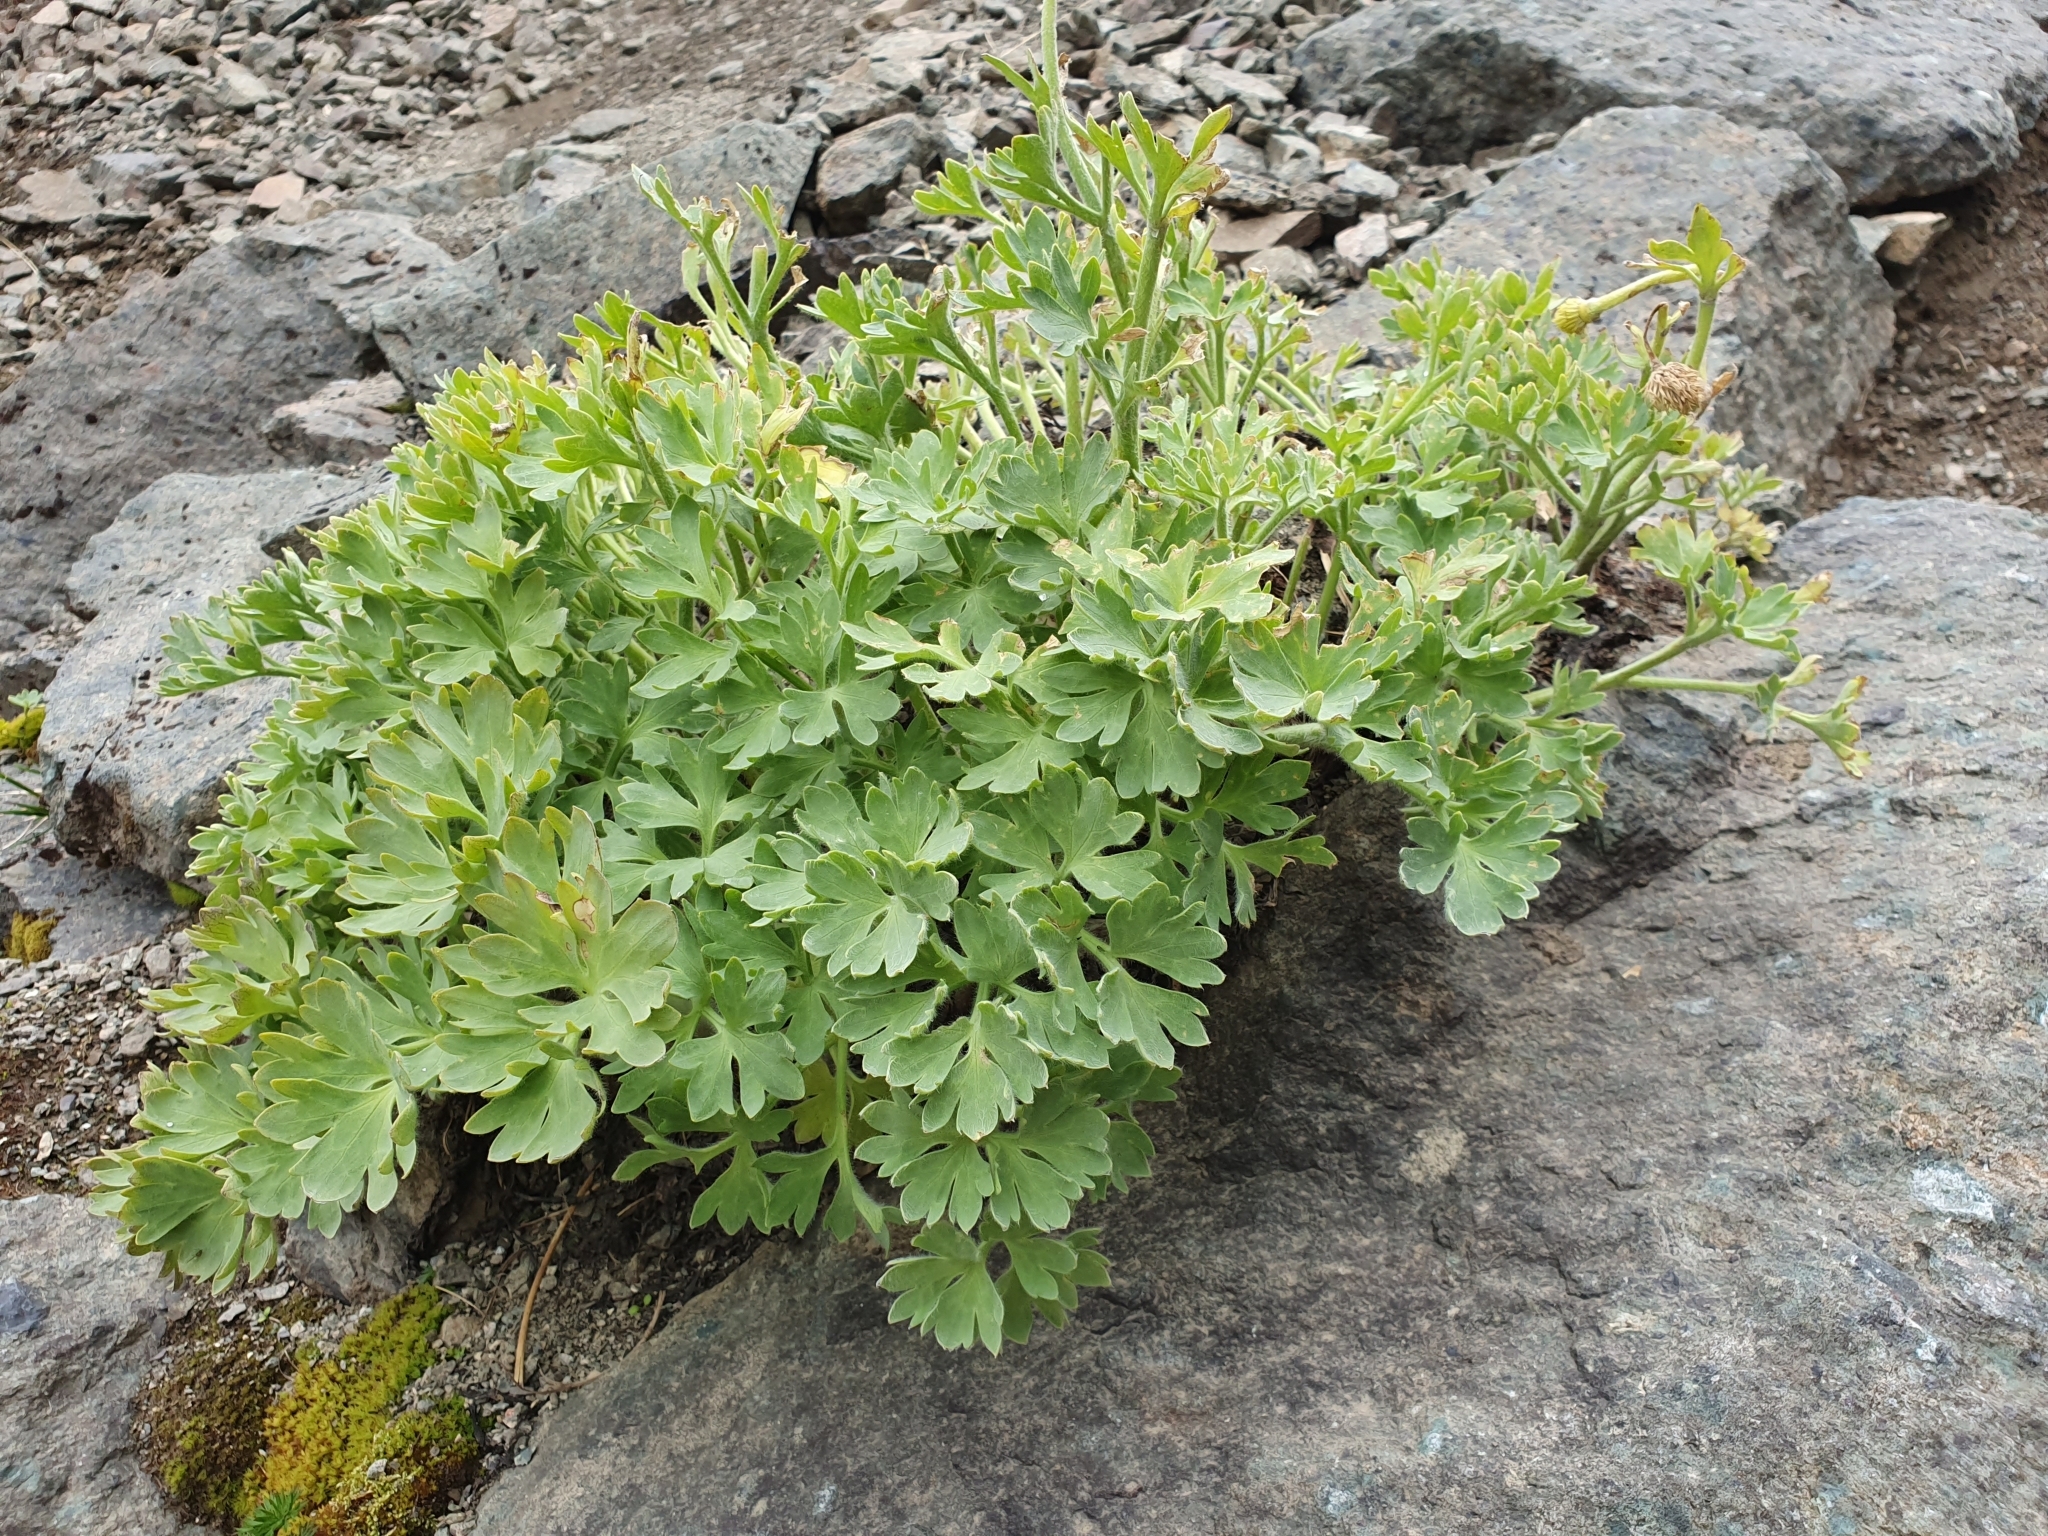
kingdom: Plantae
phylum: Tracheophyta
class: Magnoliopsida
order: Ranunculales
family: Ranunculaceae
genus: Ranunculus
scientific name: Ranunculus buchananii
